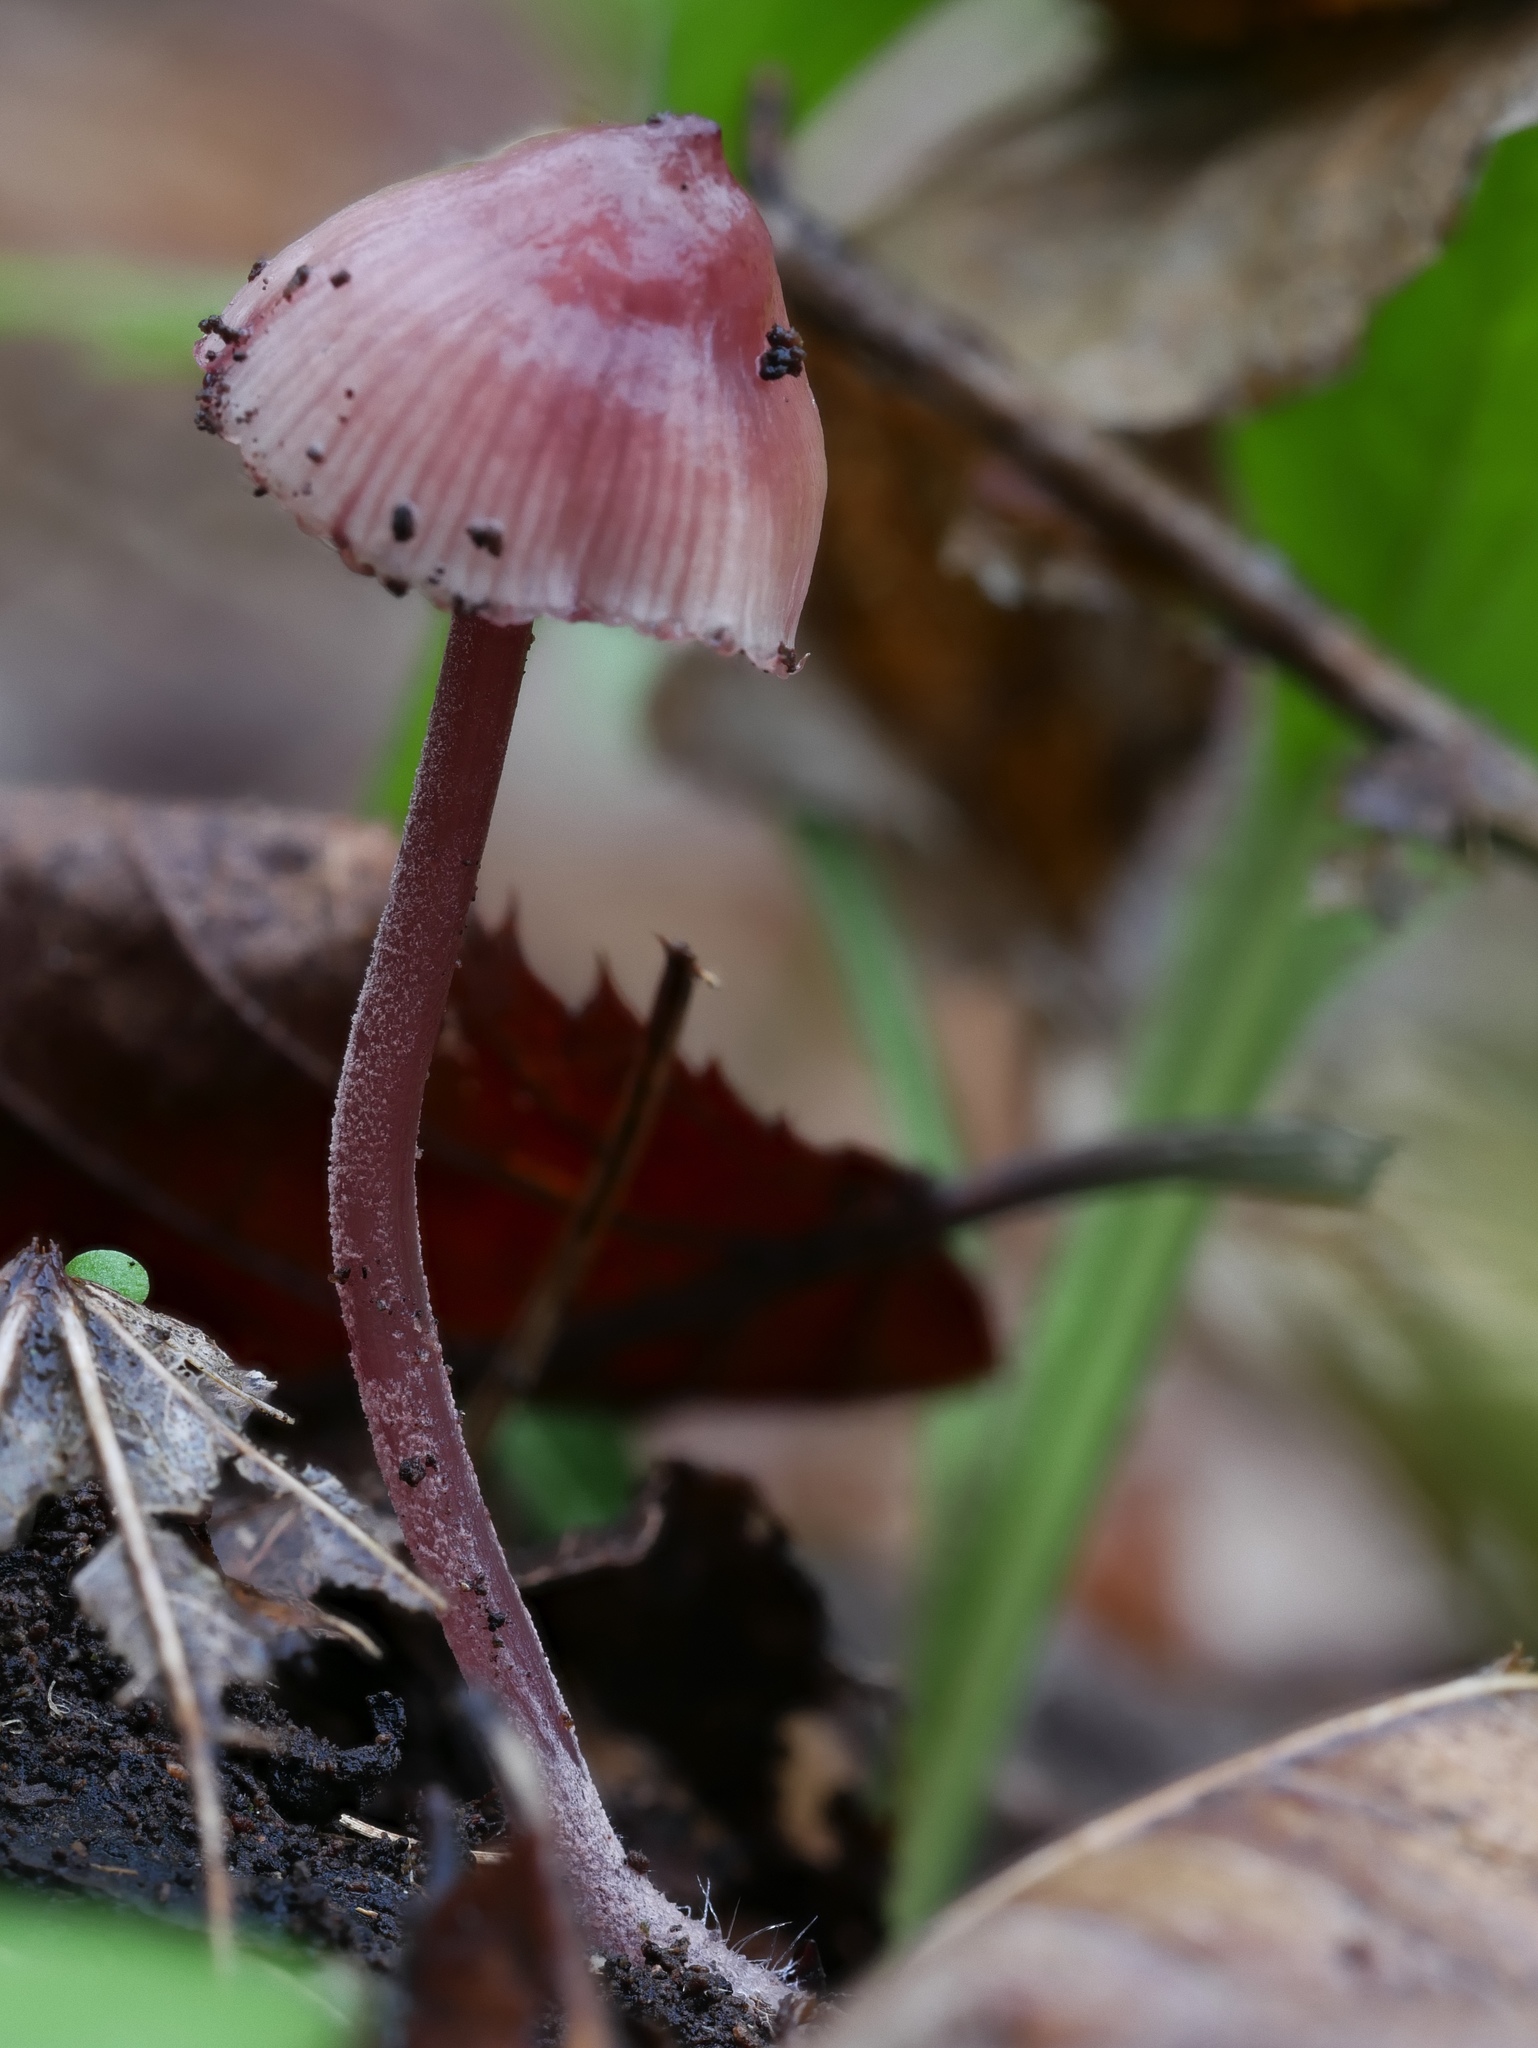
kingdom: Fungi
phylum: Basidiomycota
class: Agaricomycetes
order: Agaricales
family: Mycenaceae
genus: Mycena
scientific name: Mycena haematopus
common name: Burgundydrop bonnet
